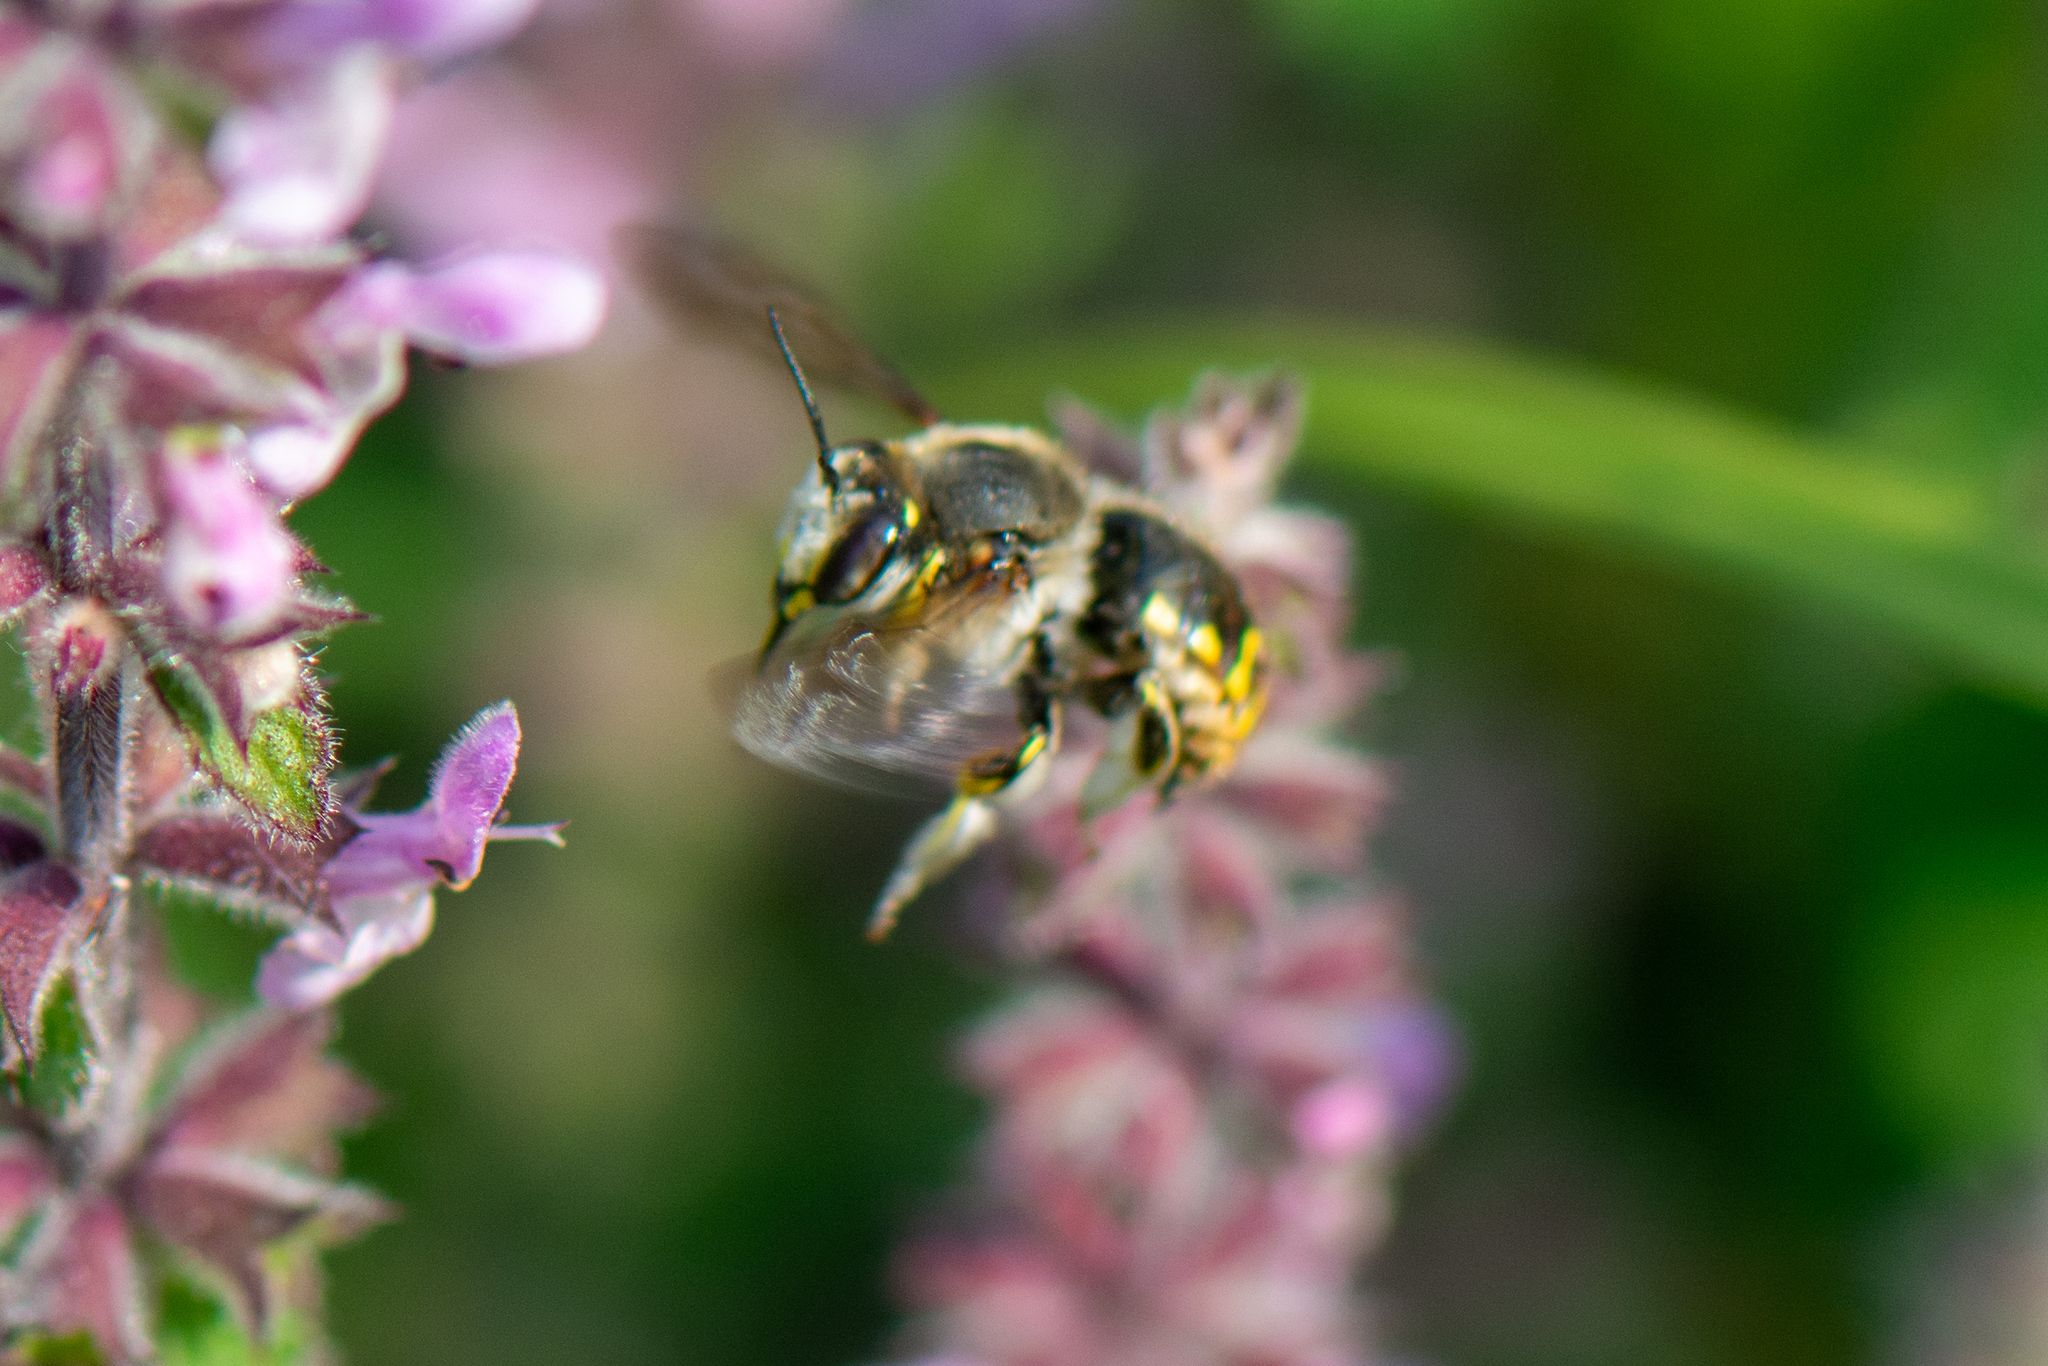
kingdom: Animalia
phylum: Arthropoda
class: Insecta
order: Hymenoptera
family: Megachilidae
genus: Anthidium
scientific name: Anthidium manicatum
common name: Wool carder bee
